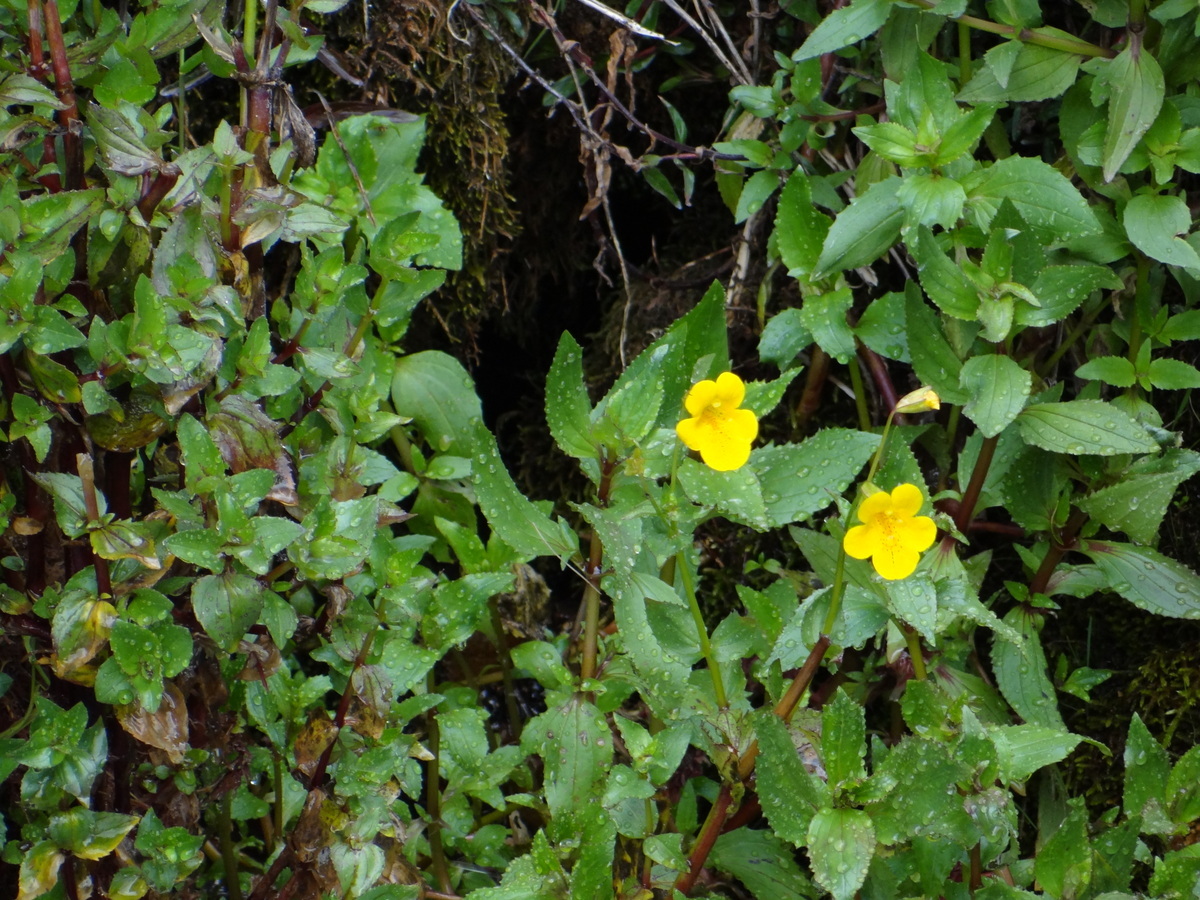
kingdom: Plantae
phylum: Tracheophyta
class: Magnoliopsida
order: Lamiales
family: Phrymaceae
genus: Erythranthe
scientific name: Erythranthe lutea
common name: Yellow monkey-flower
